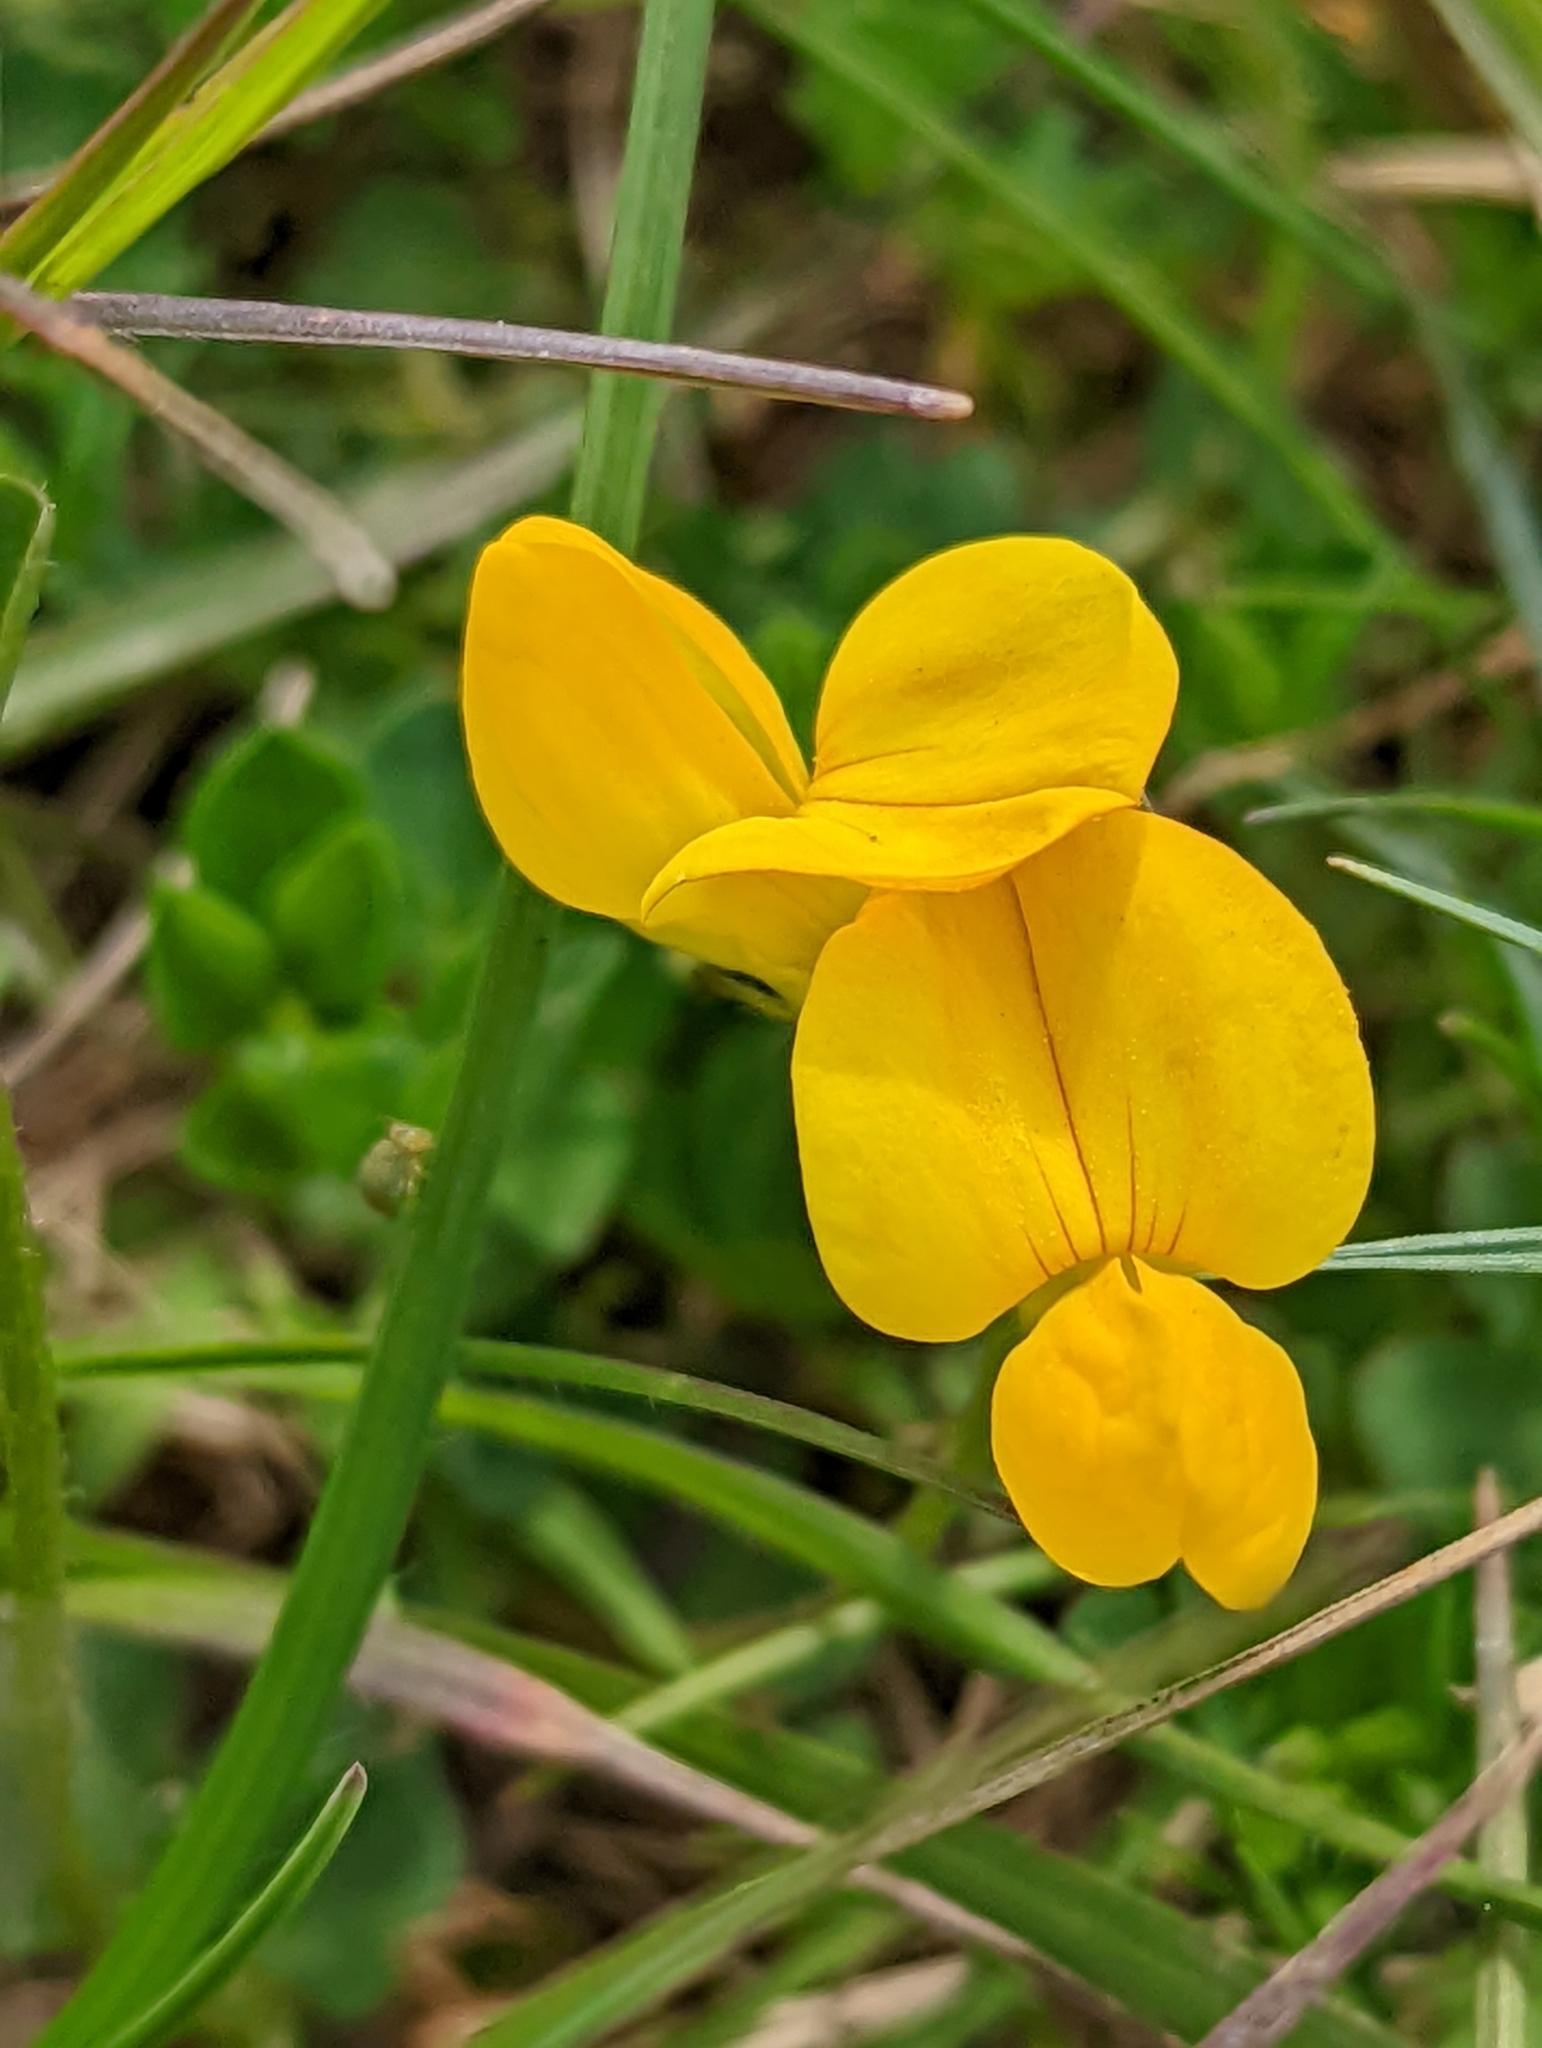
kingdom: Plantae
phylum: Tracheophyta
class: Magnoliopsida
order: Fabales
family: Fabaceae
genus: Lotus
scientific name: Lotus corniculatus
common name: Common bird's-foot-trefoil
